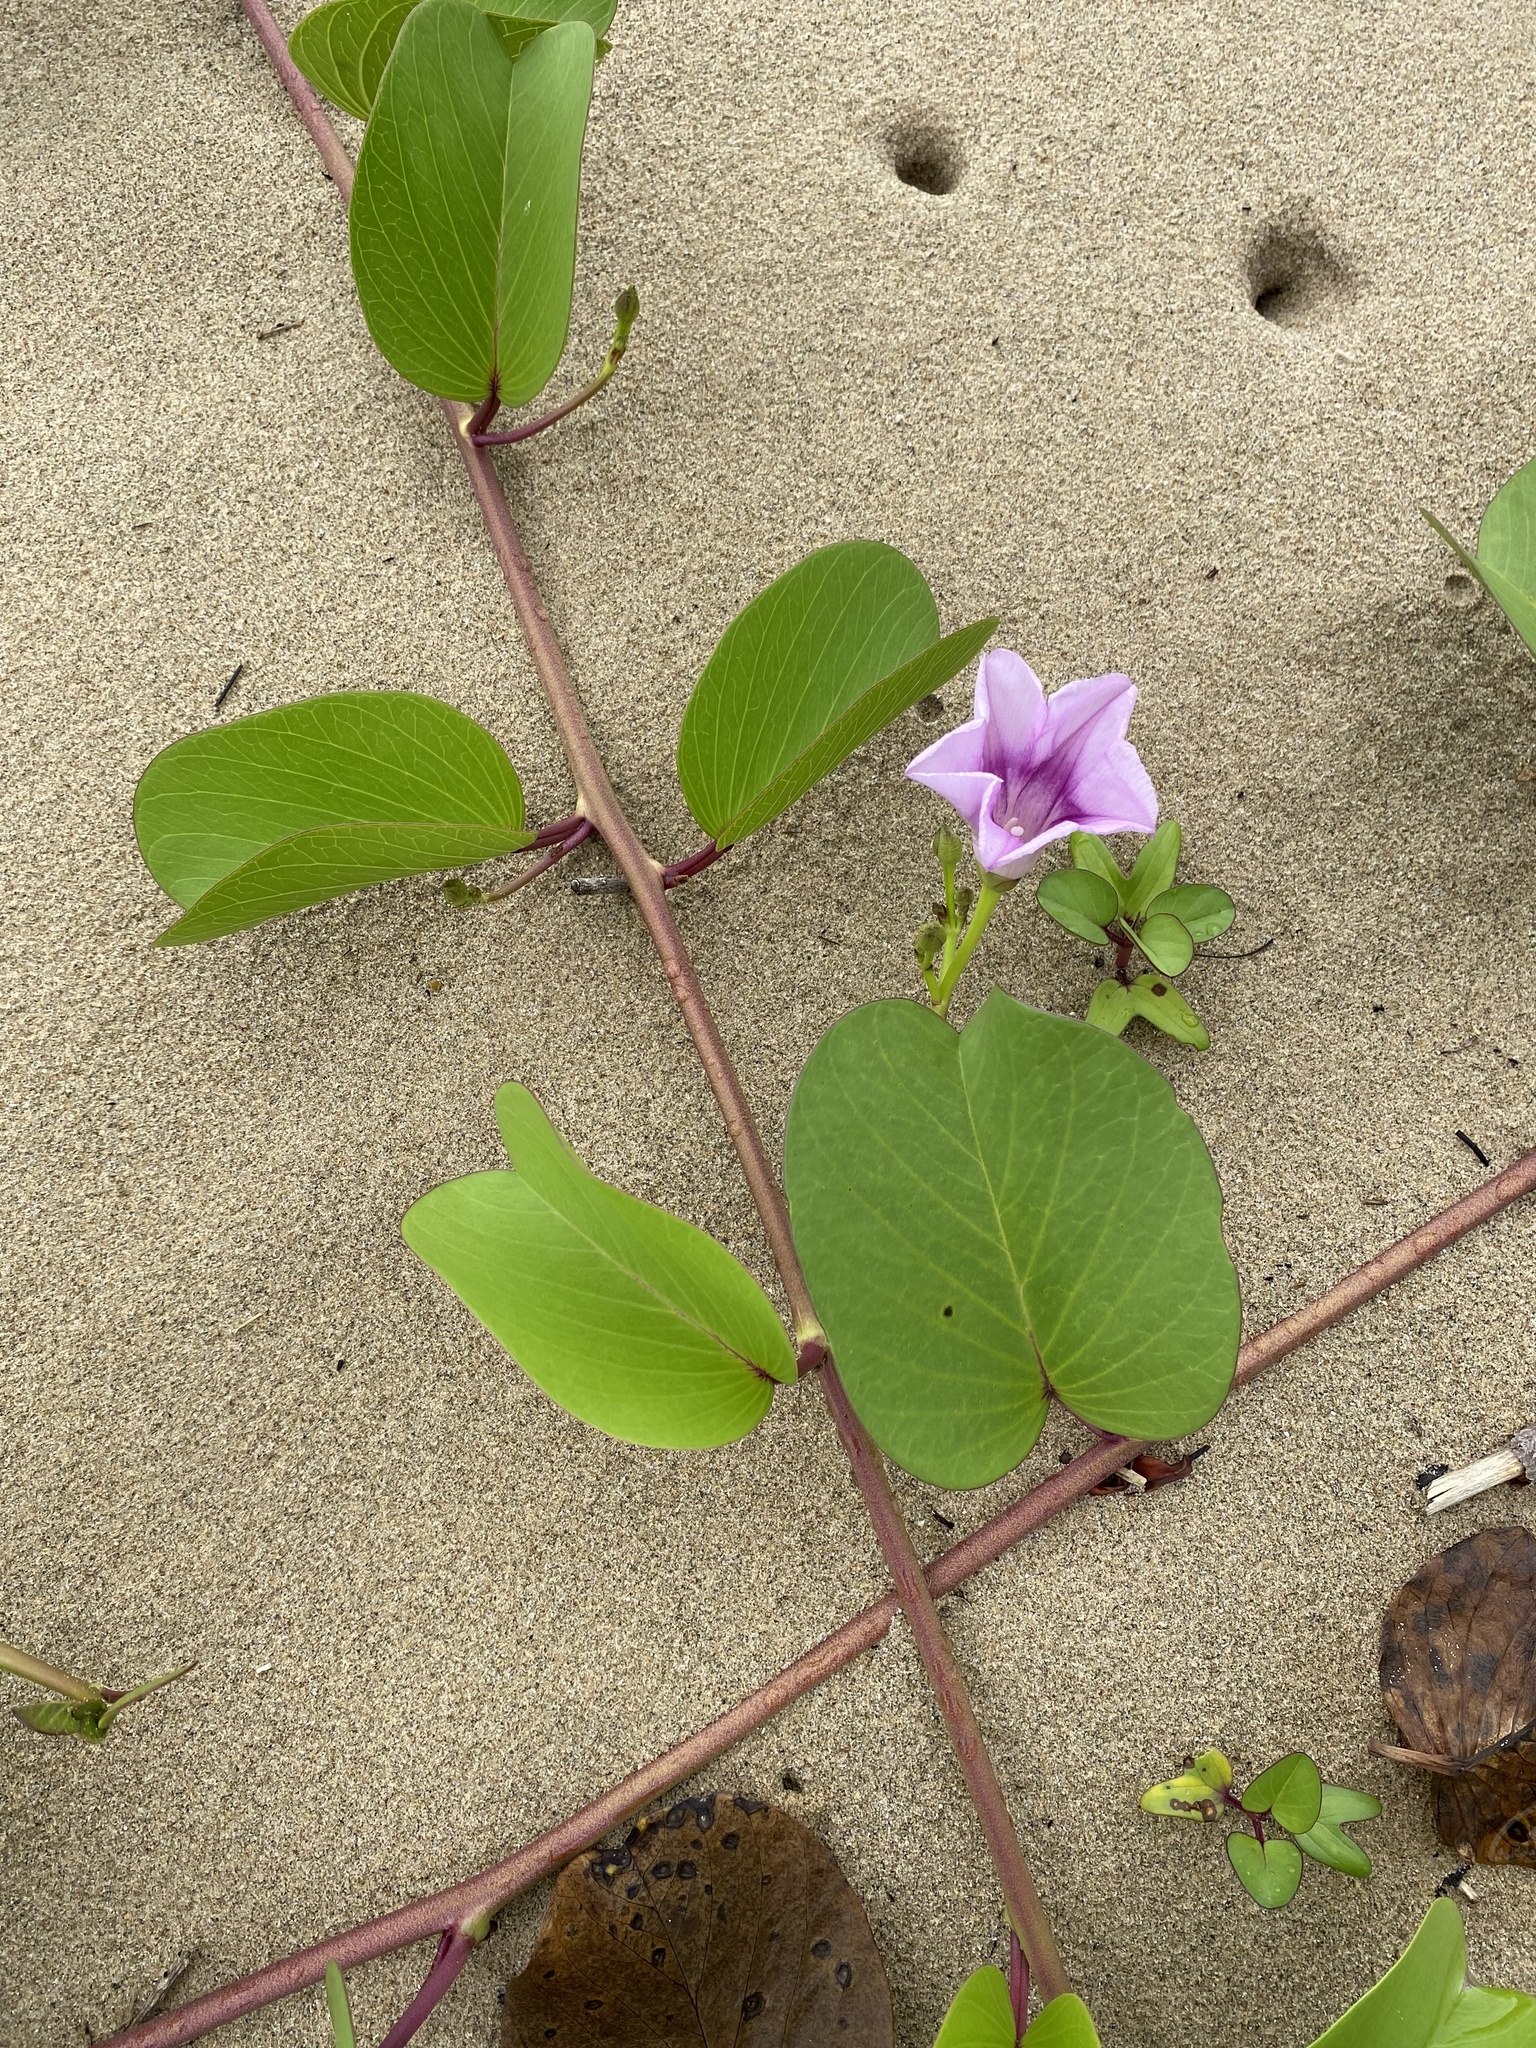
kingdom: Plantae
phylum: Tracheophyta
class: Magnoliopsida
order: Solanales
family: Convolvulaceae
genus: Ipomoea
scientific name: Ipomoea pes-caprae
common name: Beach morning glory
